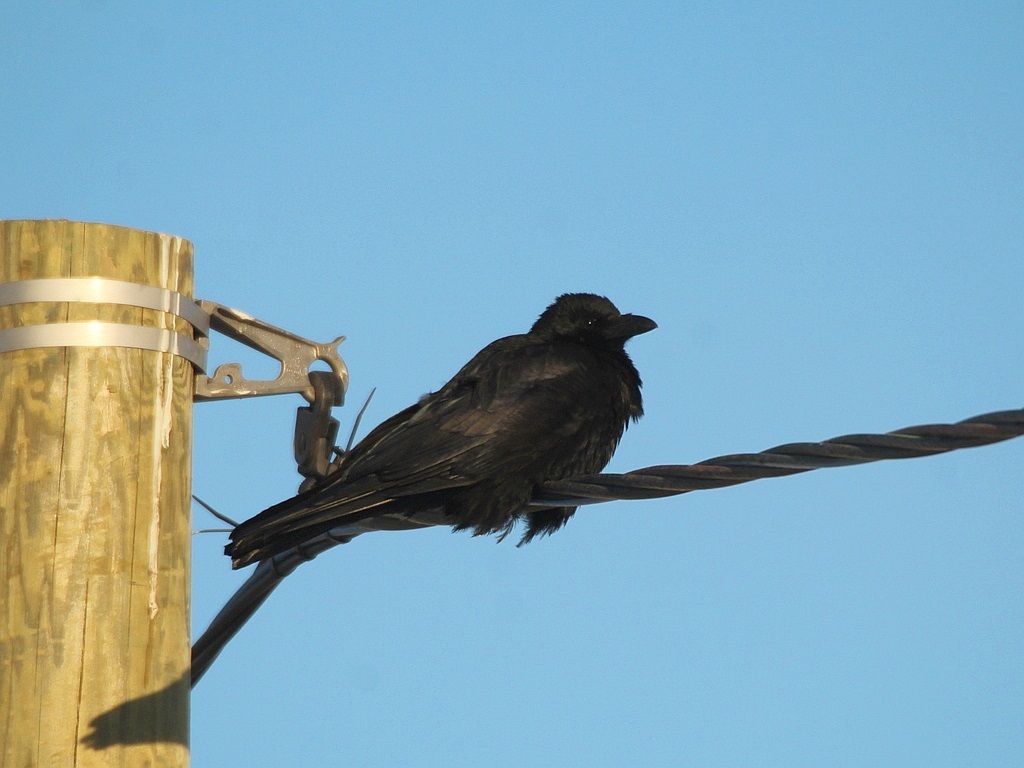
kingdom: Animalia
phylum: Chordata
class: Aves
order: Passeriformes
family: Corvidae
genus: Corvus
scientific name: Corvus corone
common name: Carrion crow
